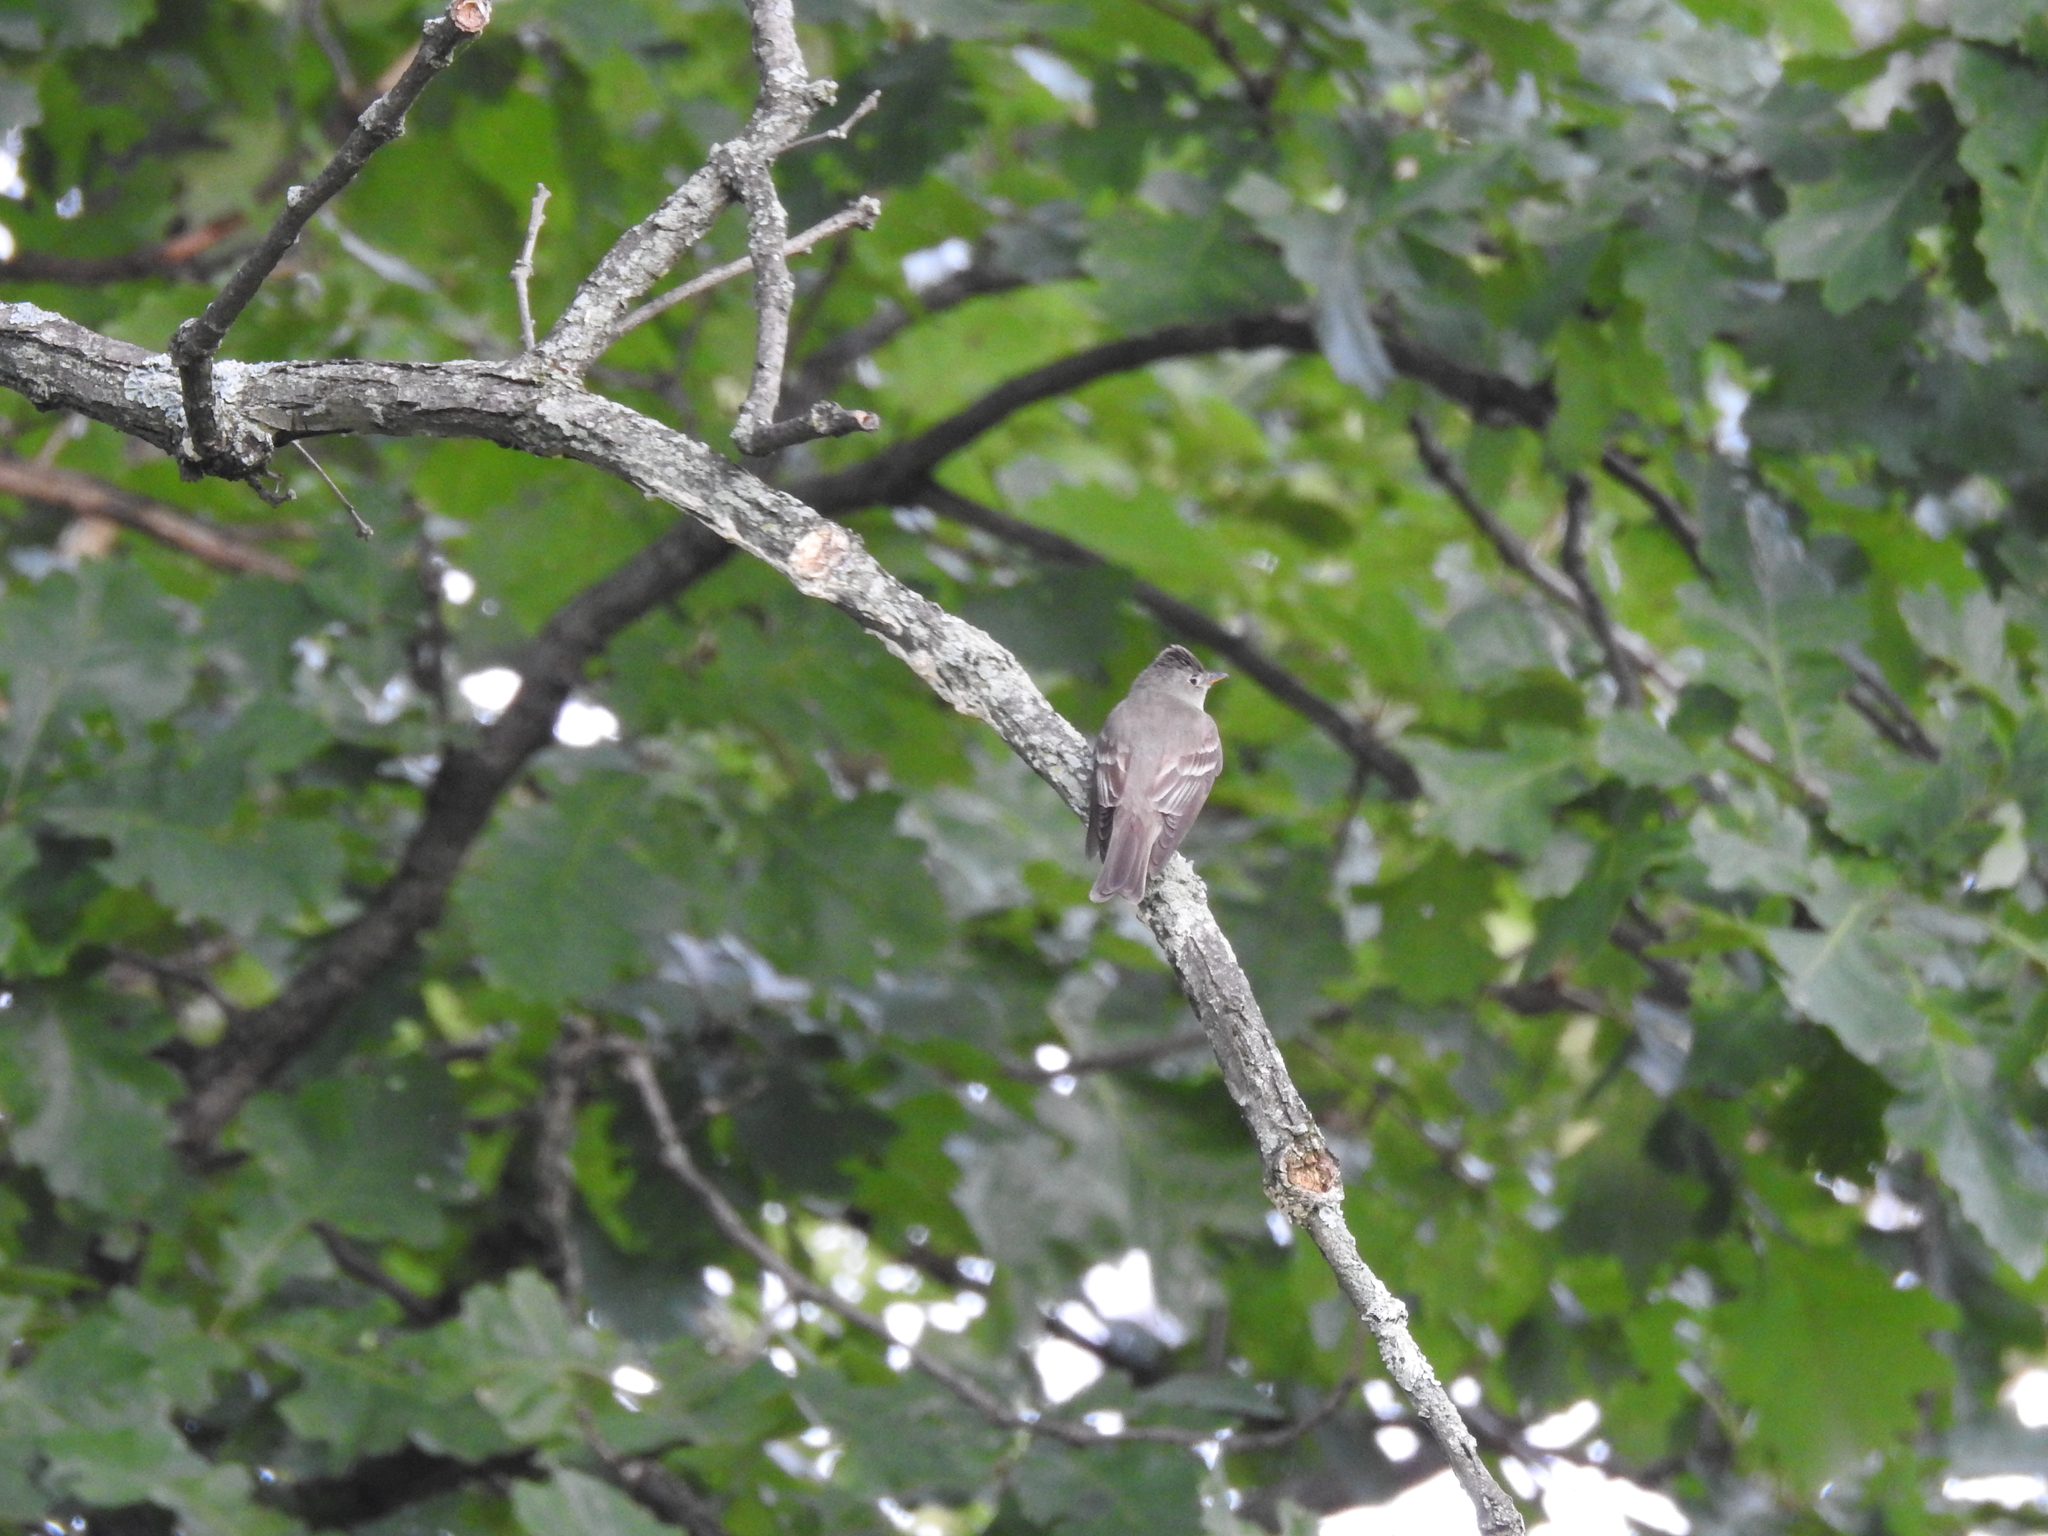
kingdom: Animalia
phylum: Chordata
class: Aves
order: Passeriformes
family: Tyrannidae
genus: Contopus
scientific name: Contopus virens
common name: Eastern wood-pewee
